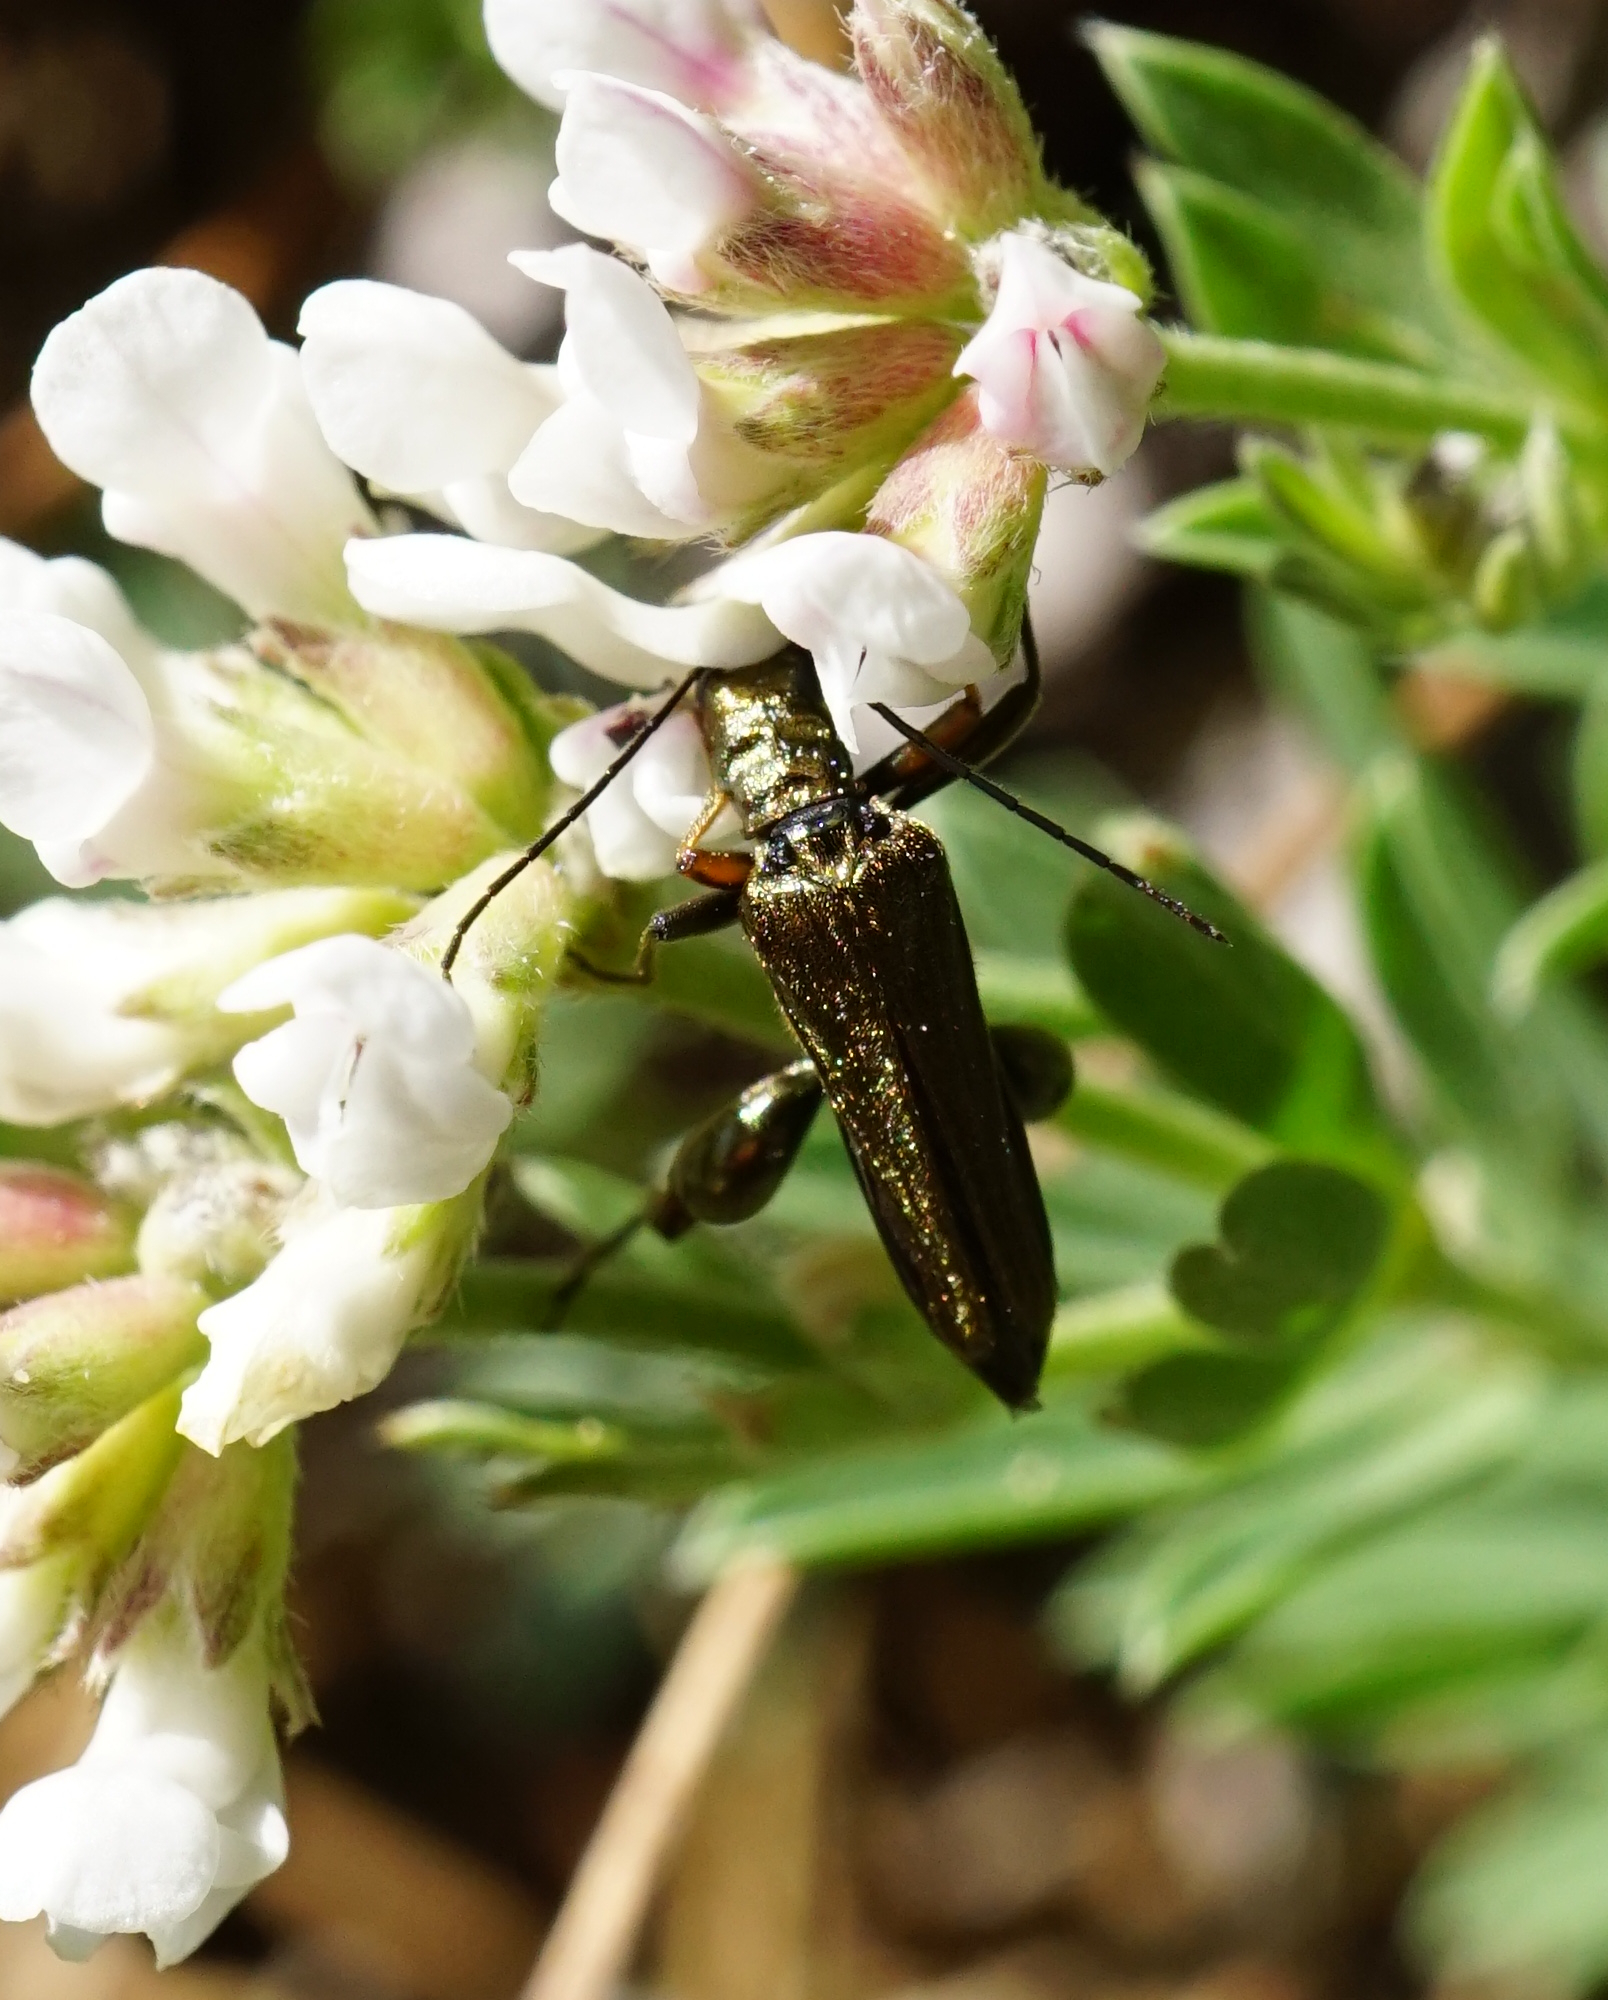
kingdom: Animalia
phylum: Arthropoda
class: Insecta
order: Coleoptera
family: Oedemeridae
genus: Oedemera
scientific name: Oedemera flavipes
